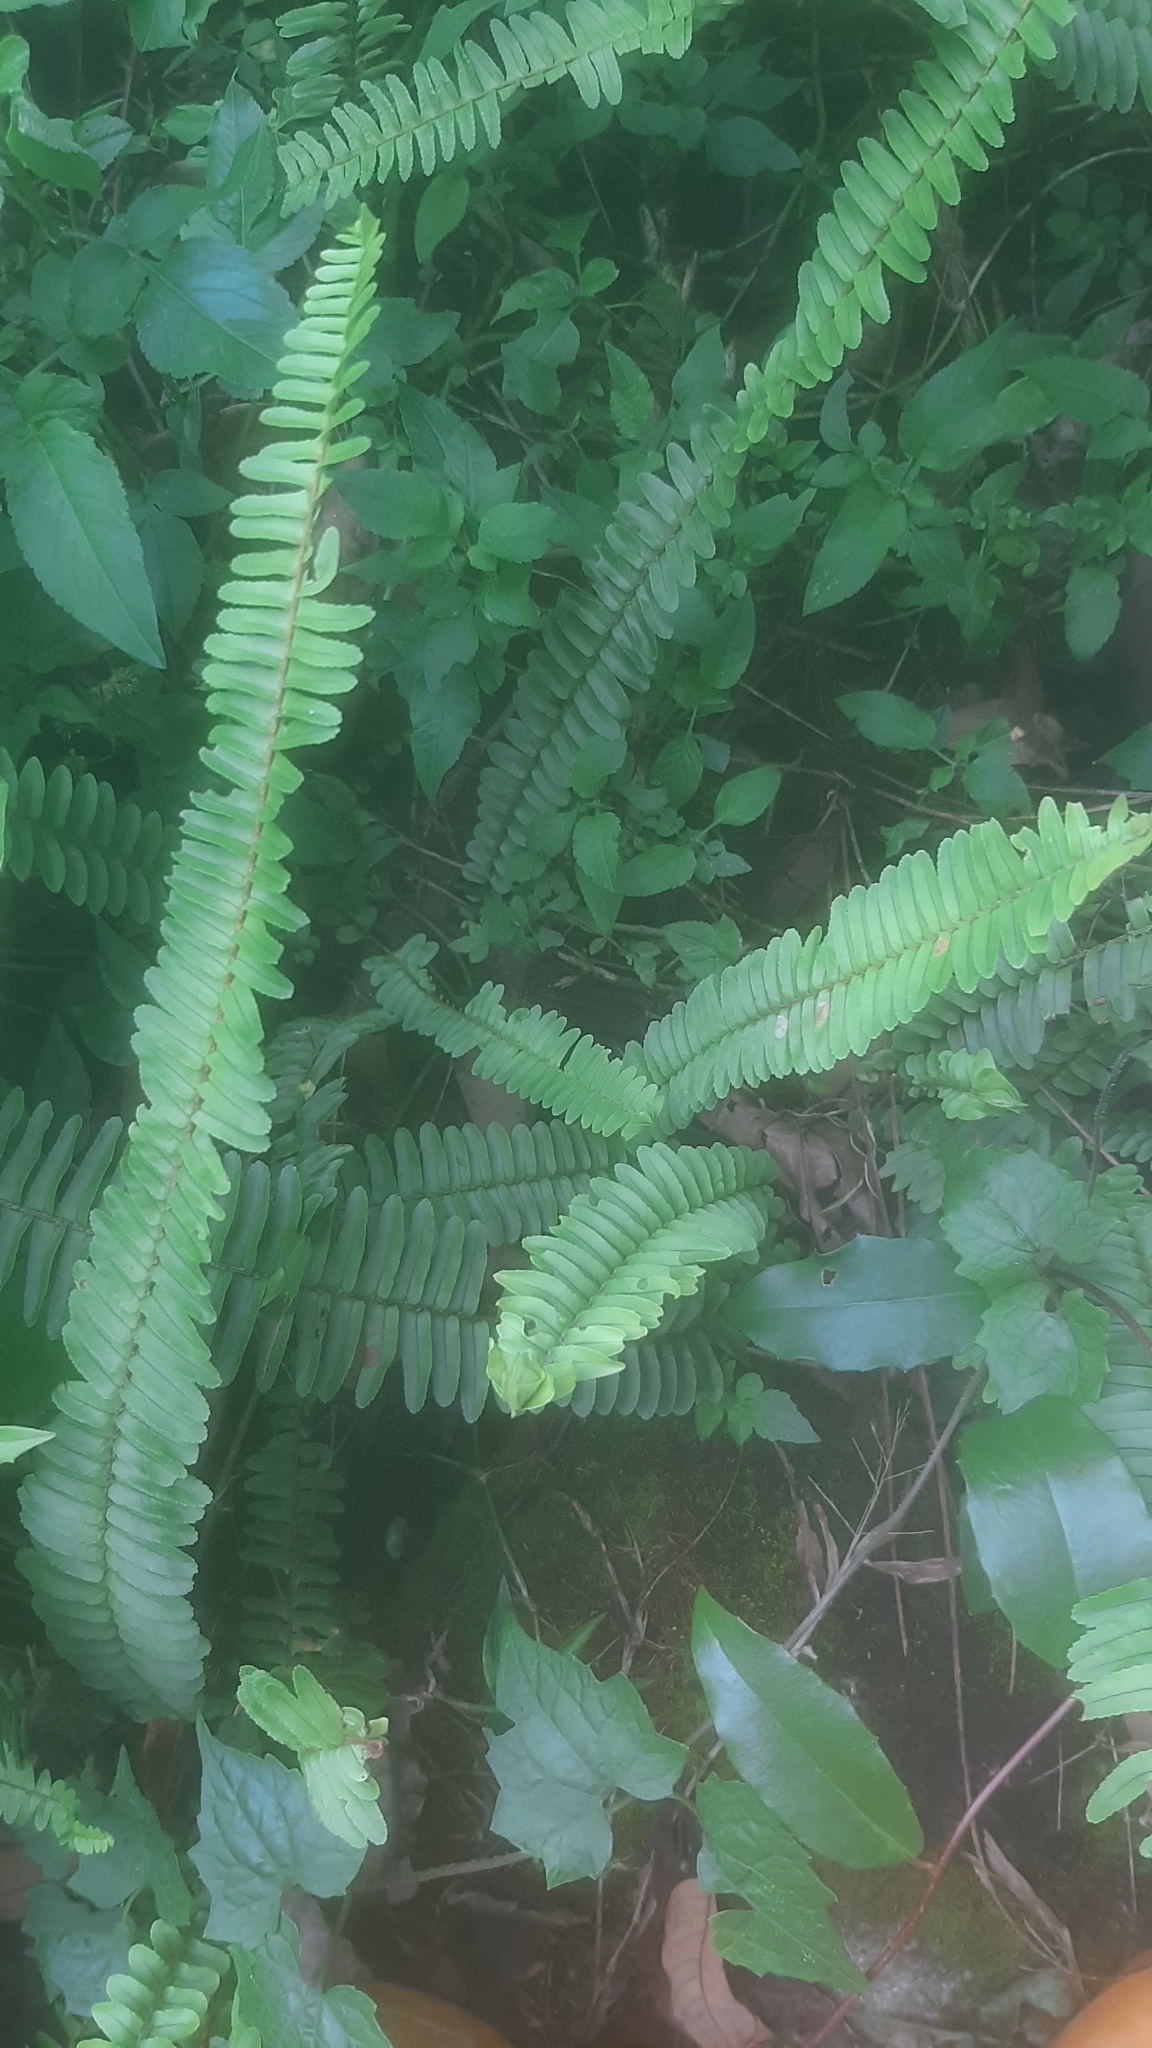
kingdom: Plantae
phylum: Tracheophyta
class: Polypodiopsida
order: Polypodiales
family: Nephrolepidaceae
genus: Nephrolepis
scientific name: Nephrolepis cordifolia
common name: Narrow swordfern
